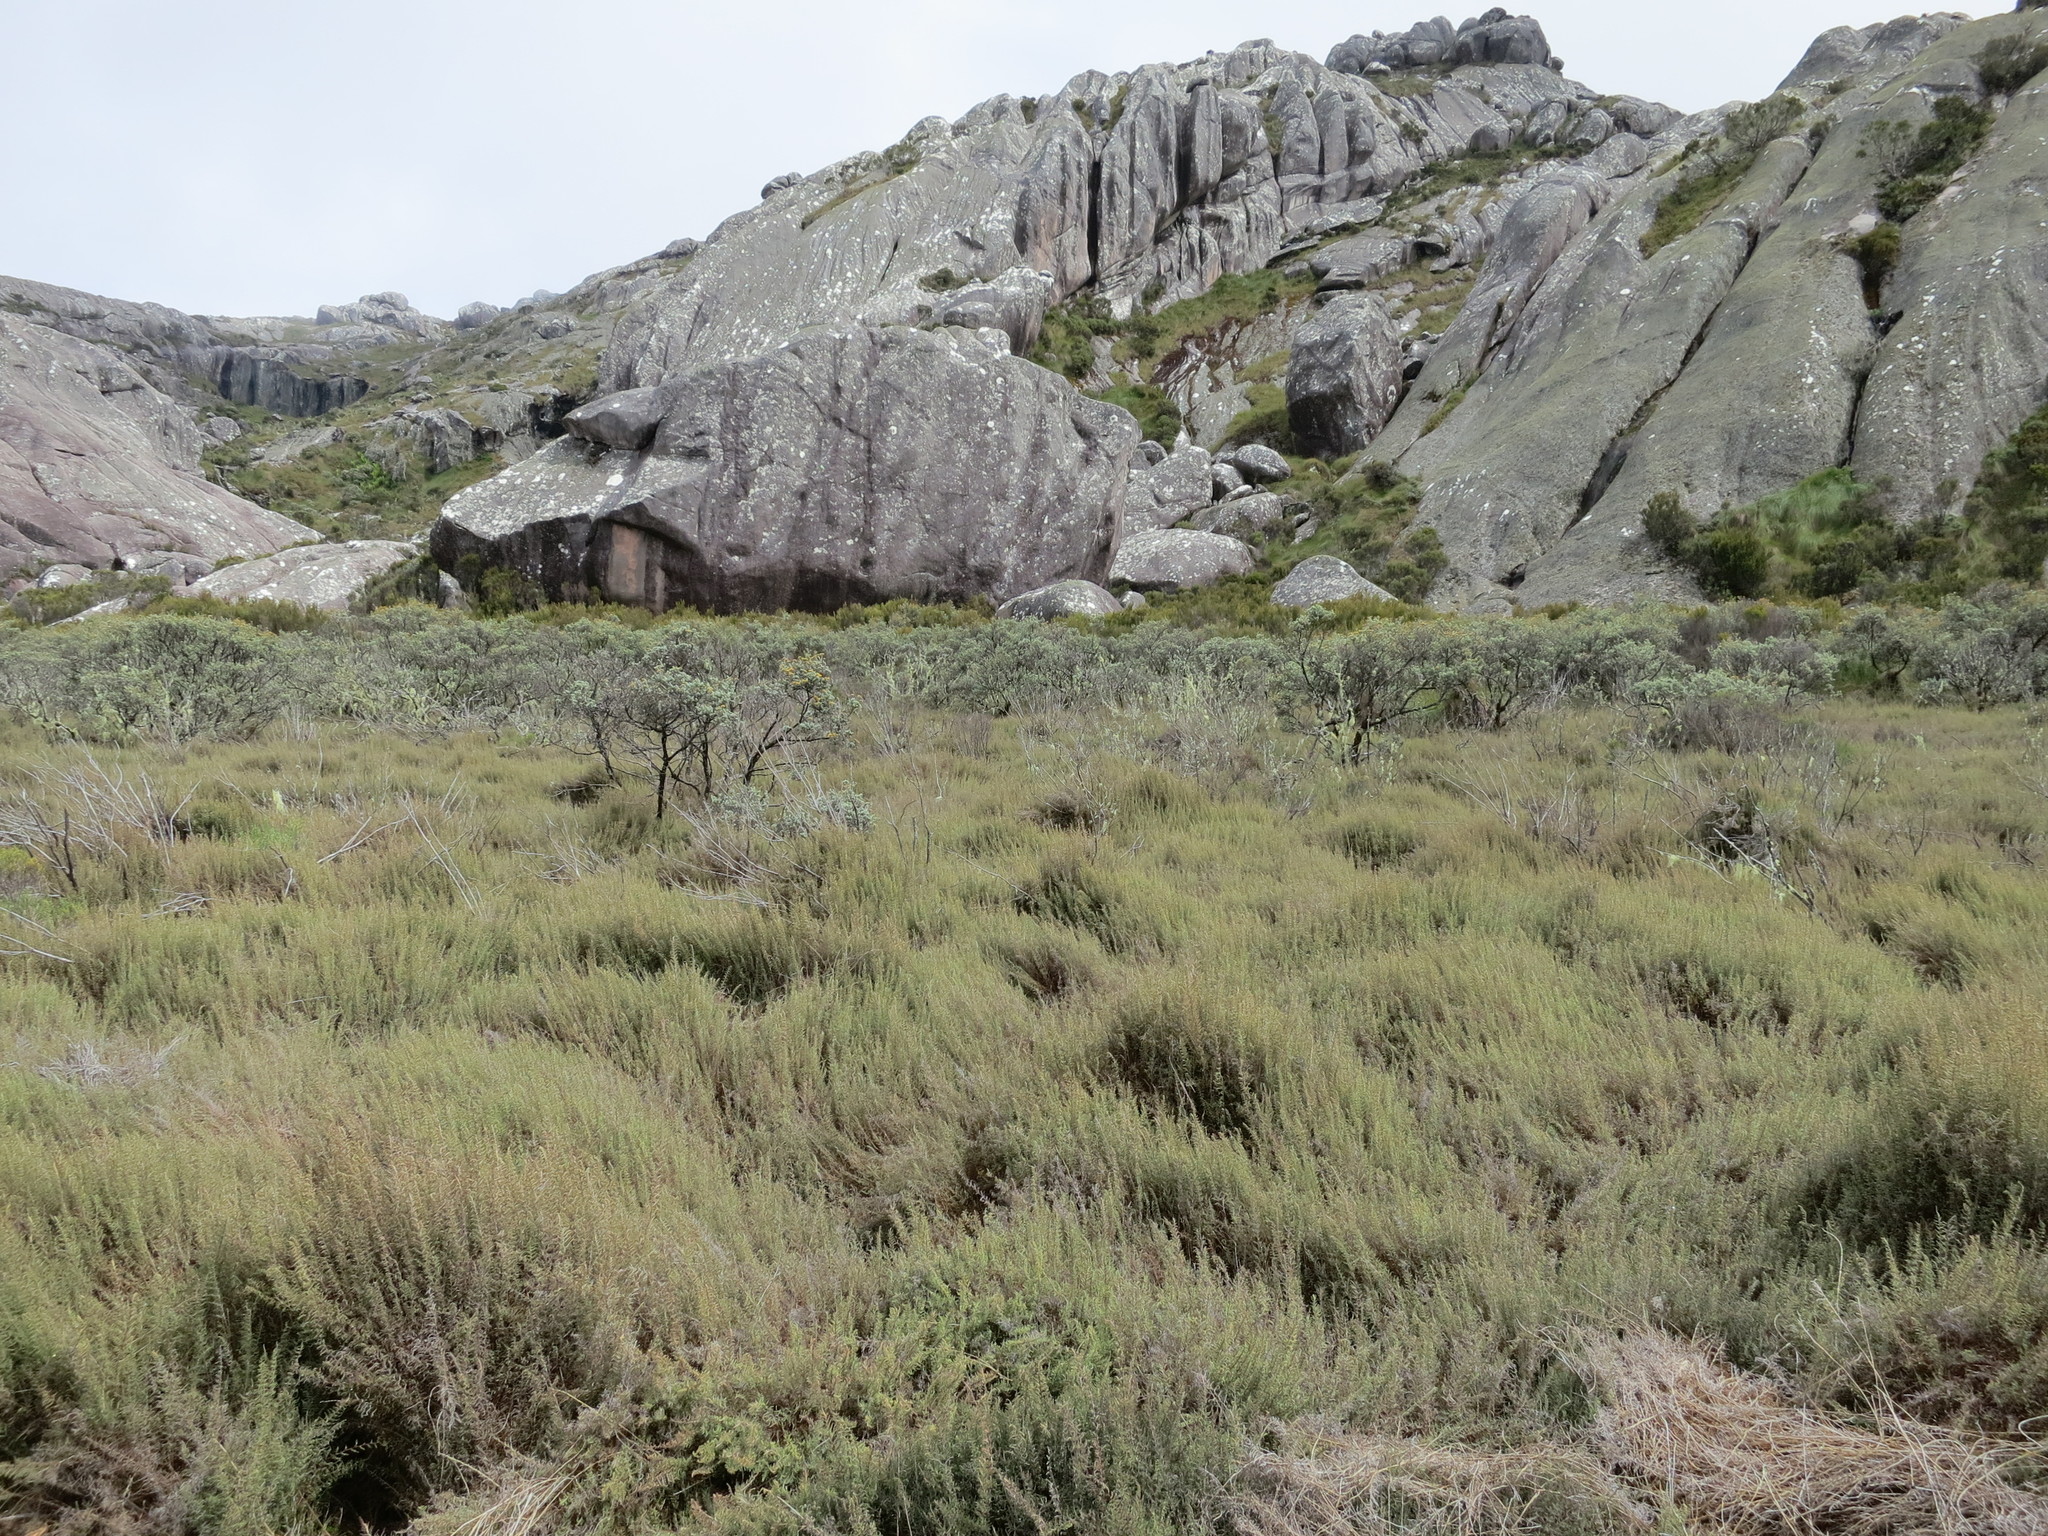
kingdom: Plantae
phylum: Tracheophyta
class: Liliopsida
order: Poales
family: Poaceae
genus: Panicum
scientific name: Panicum cupressifolium
